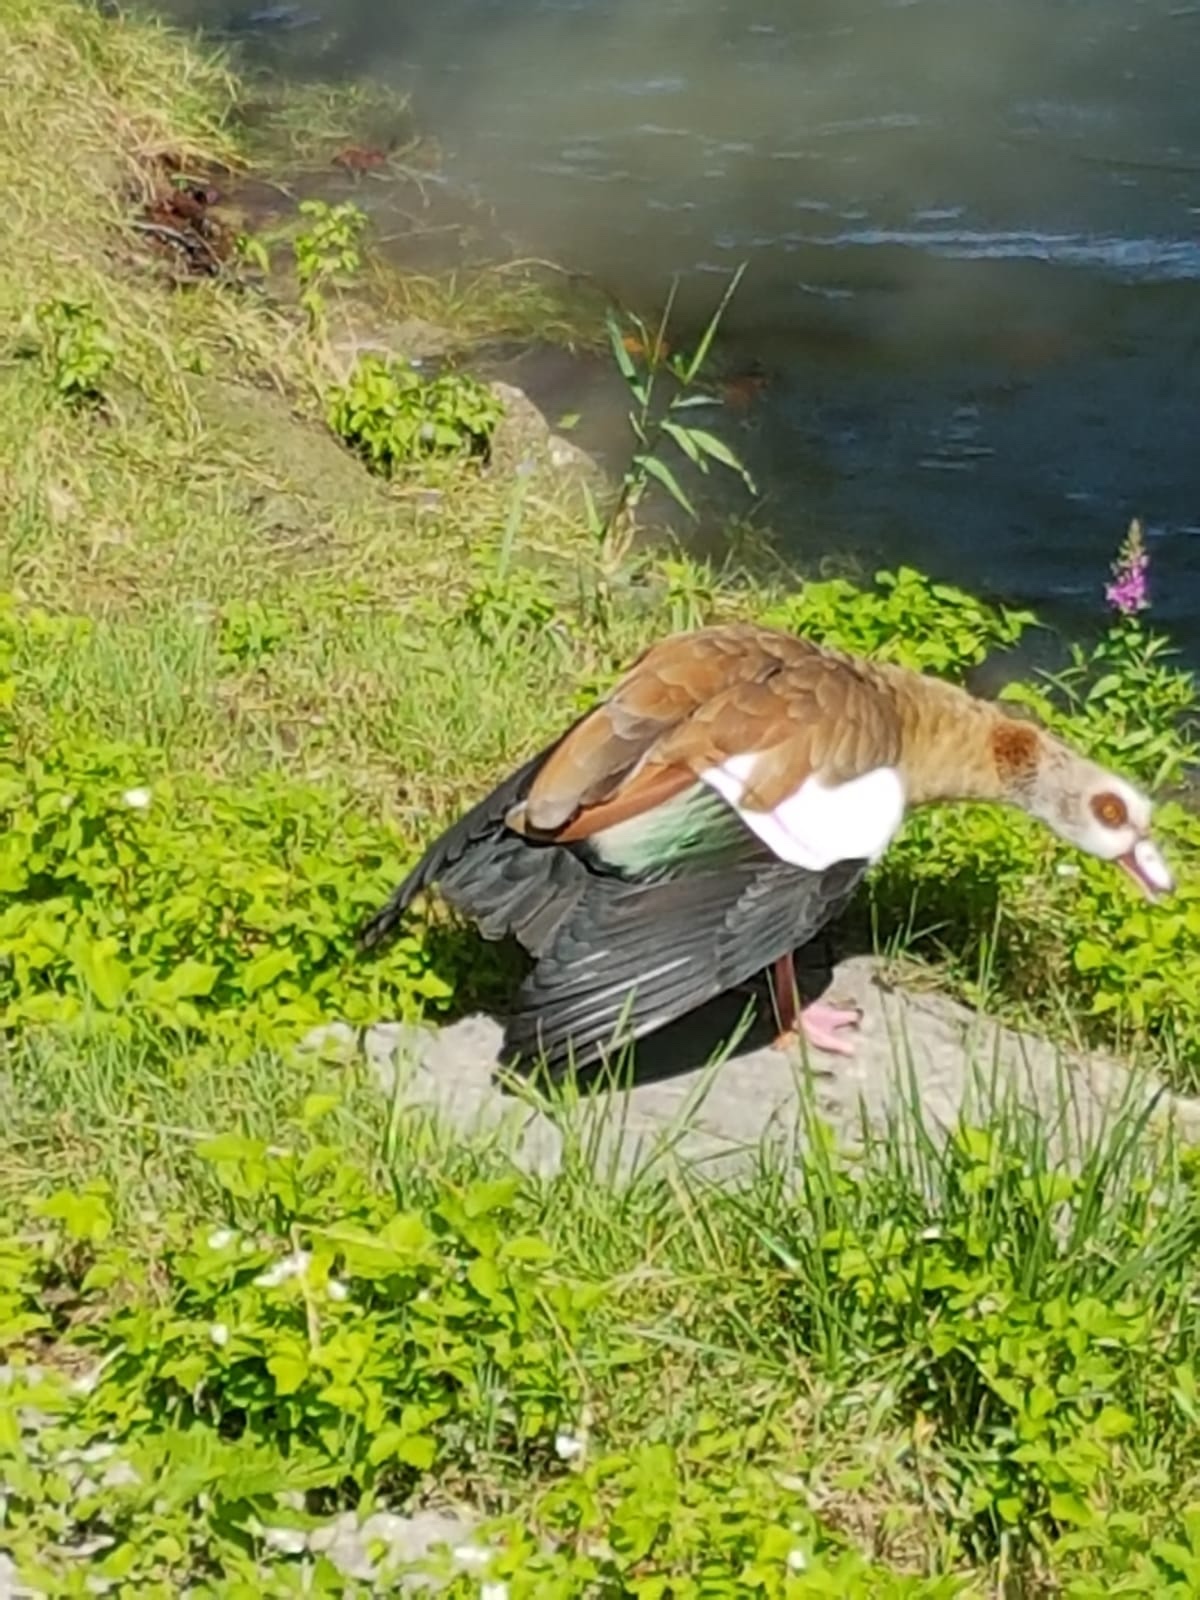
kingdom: Animalia
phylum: Chordata
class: Aves
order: Anseriformes
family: Anatidae
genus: Alopochen
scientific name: Alopochen aegyptiaca
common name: Egyptian goose
